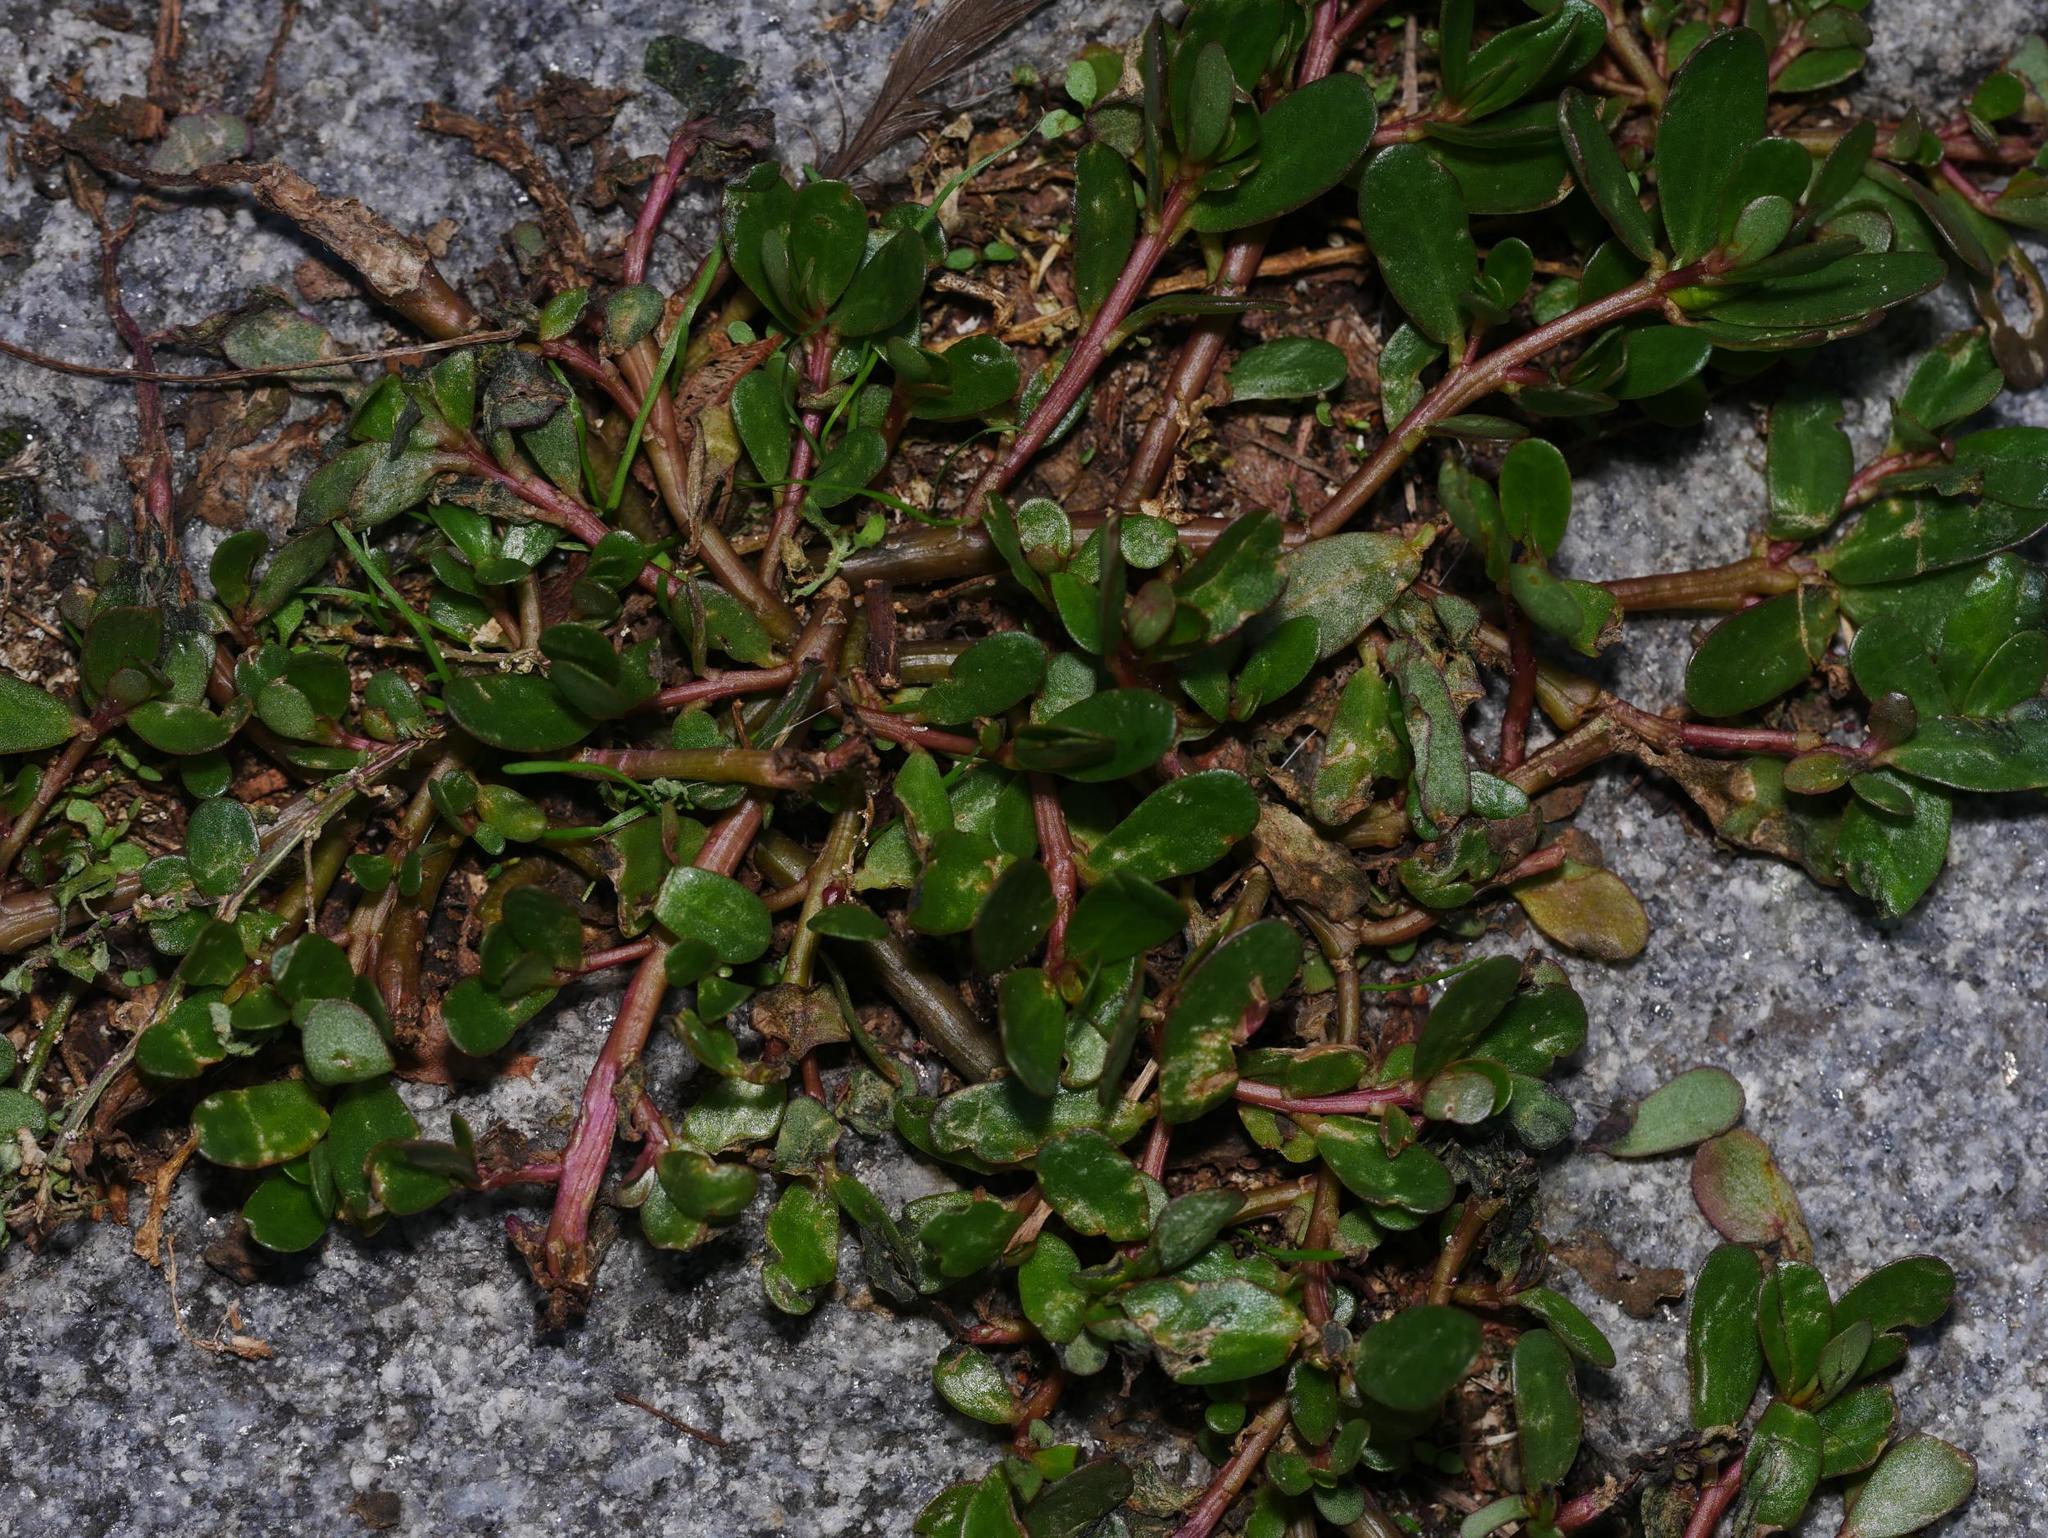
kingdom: Plantae
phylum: Tracheophyta
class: Magnoliopsida
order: Caryophyllales
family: Portulacaceae
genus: Portulaca
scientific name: Portulaca oleracea
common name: Common purslane
